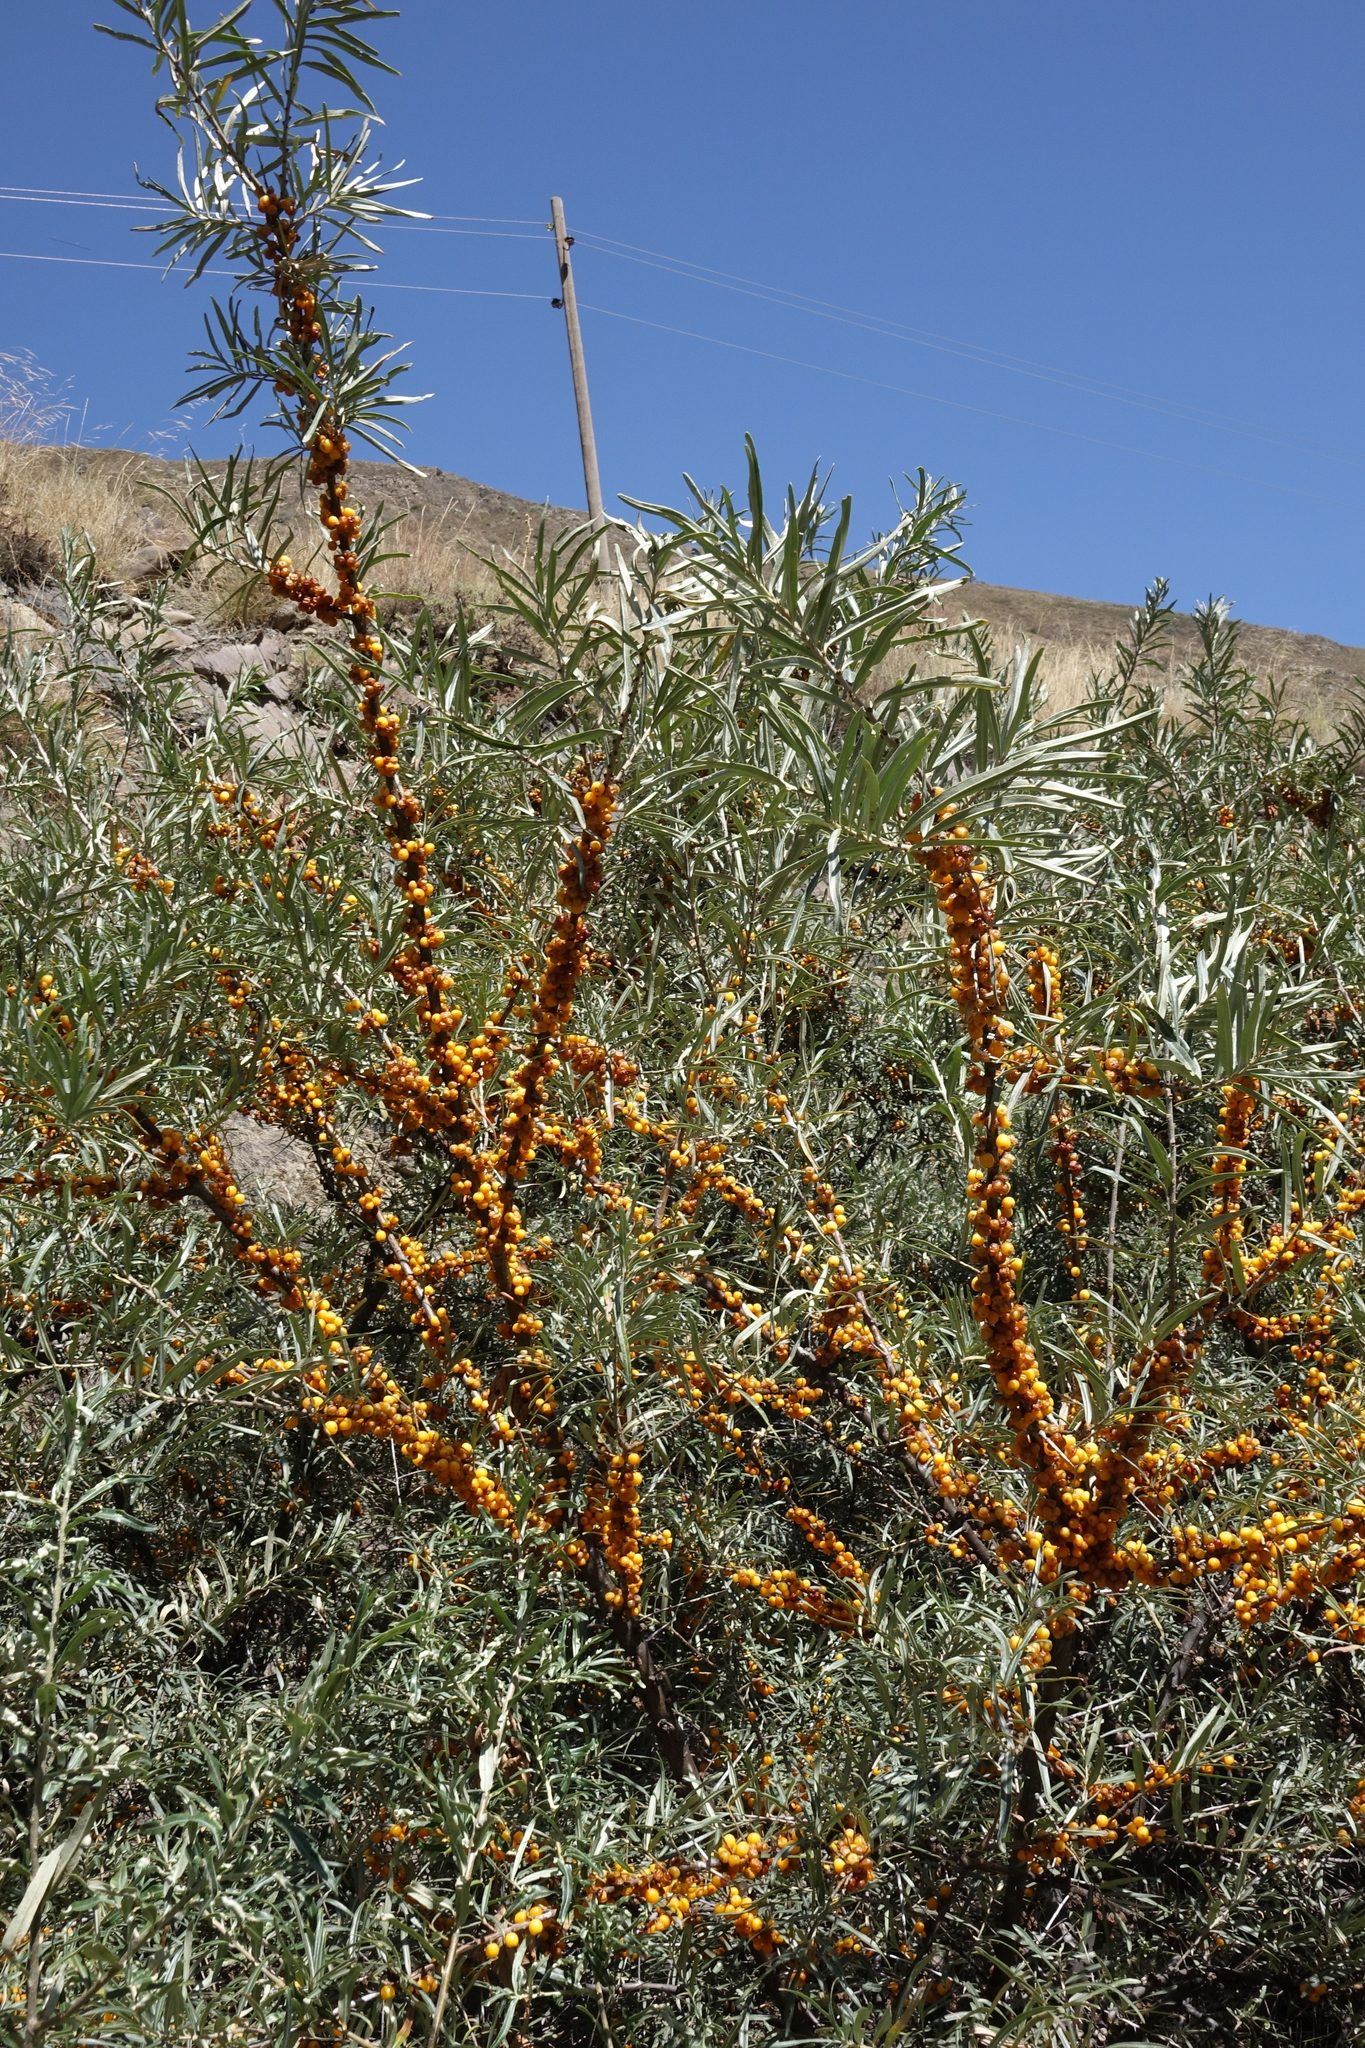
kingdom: Plantae
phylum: Tracheophyta
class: Magnoliopsida
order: Rosales
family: Elaeagnaceae
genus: Hippophae
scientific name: Hippophae rhamnoides
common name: Sea-buckthorn
